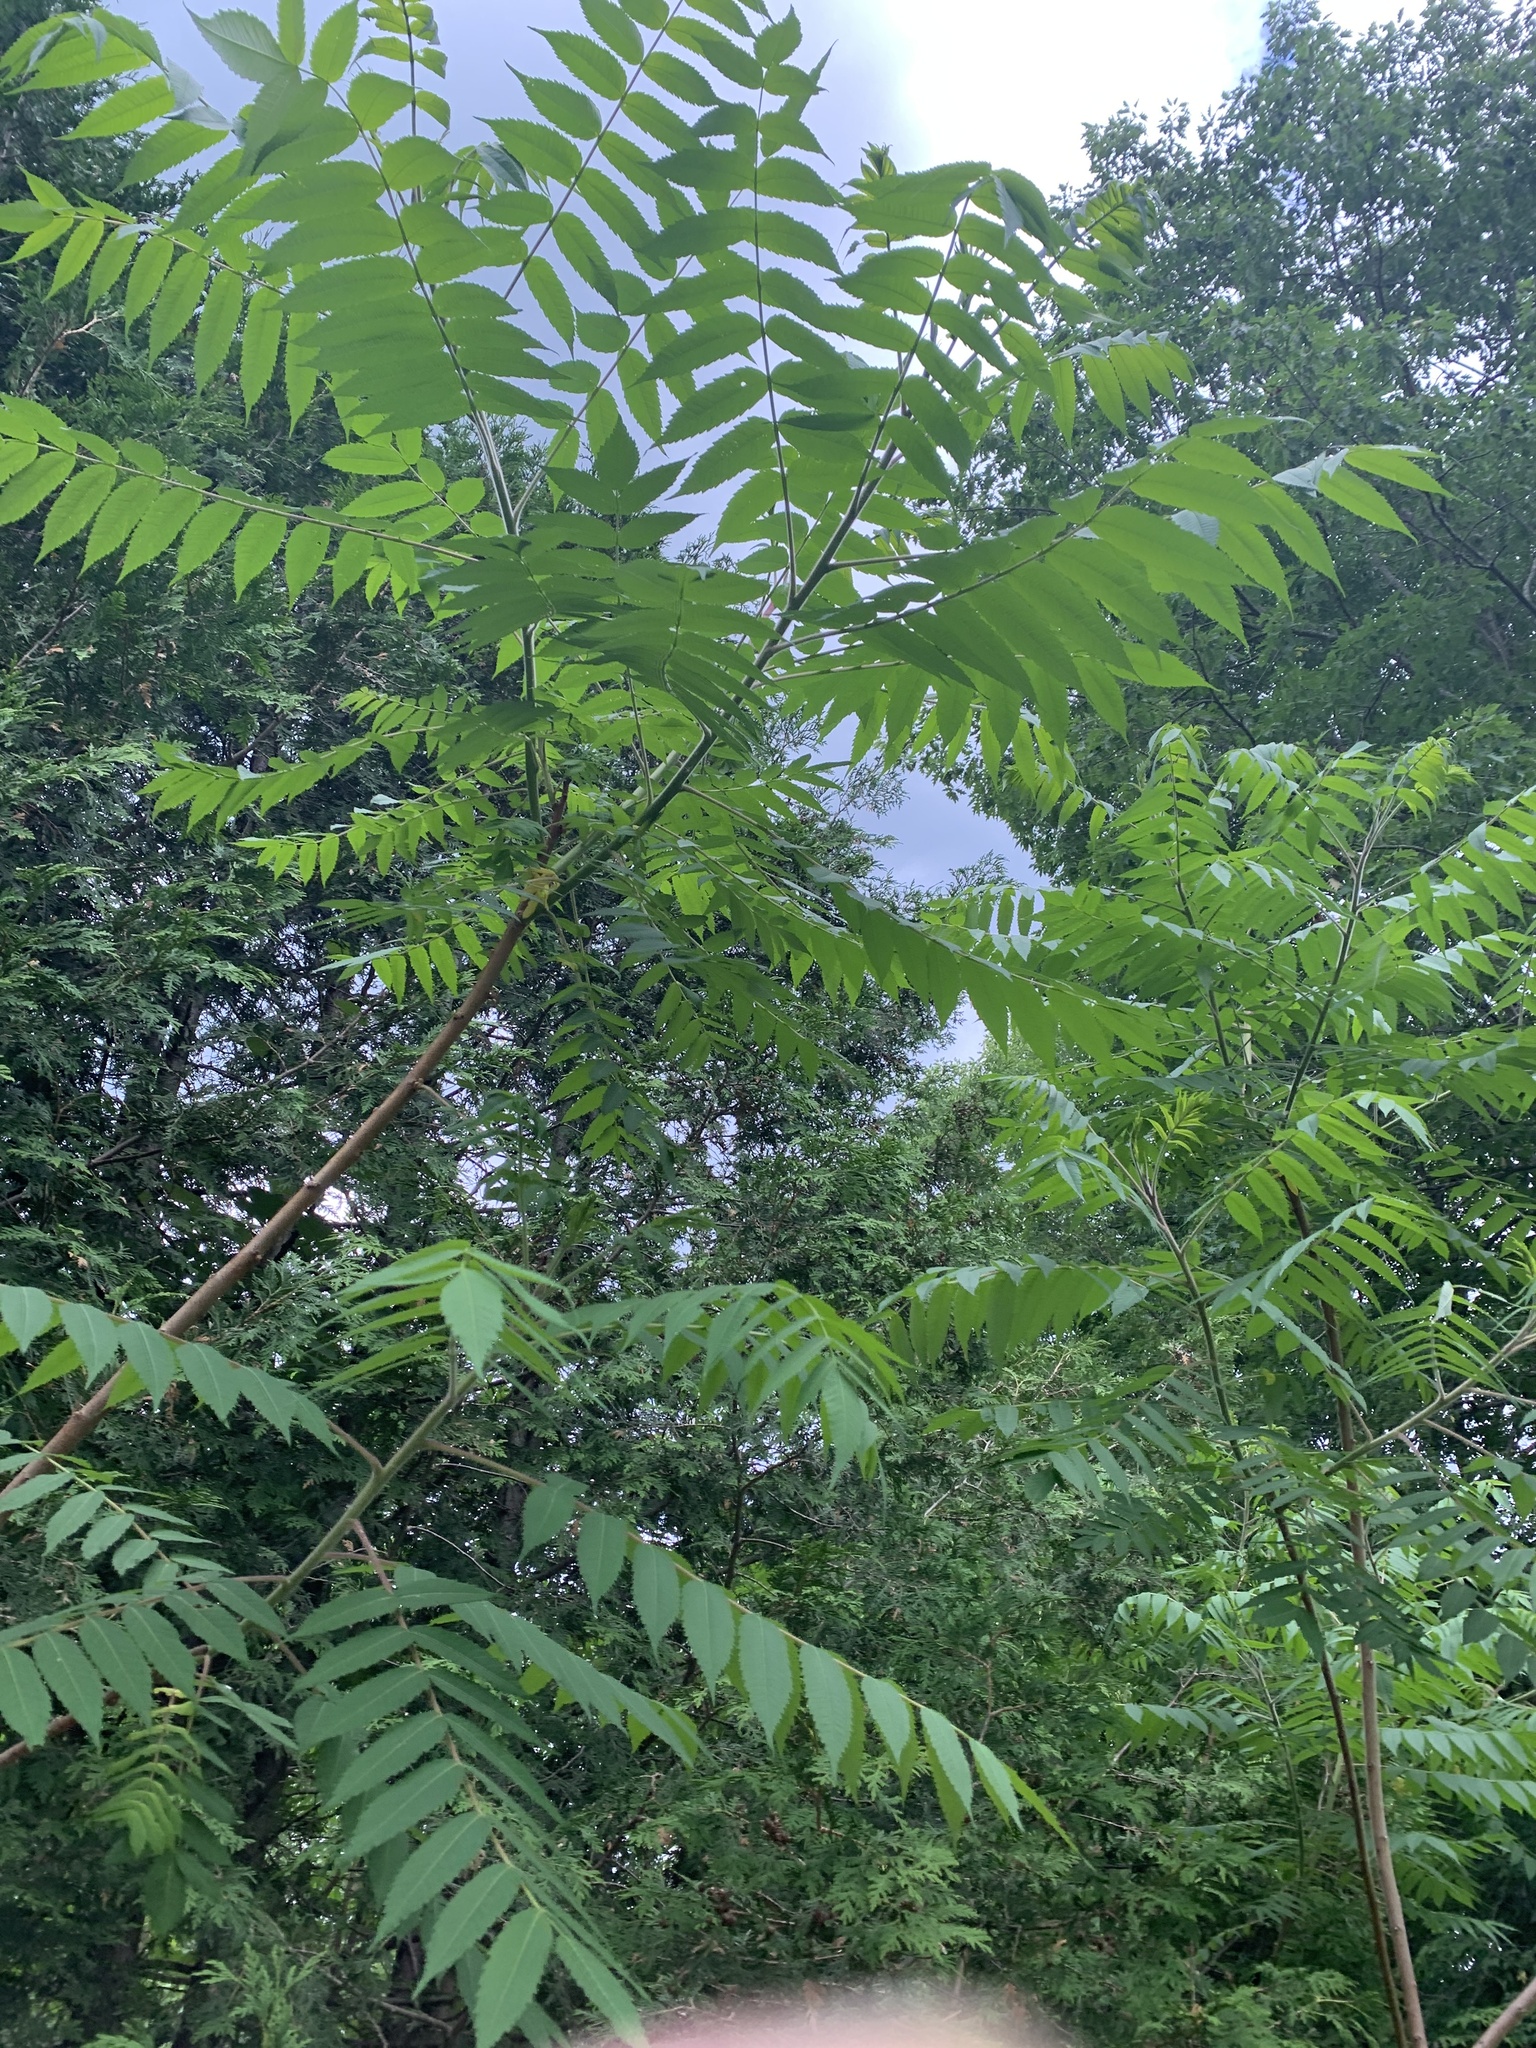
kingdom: Plantae
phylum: Tracheophyta
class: Magnoliopsida
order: Sapindales
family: Anacardiaceae
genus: Rhus
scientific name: Rhus typhina
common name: Staghorn sumac
